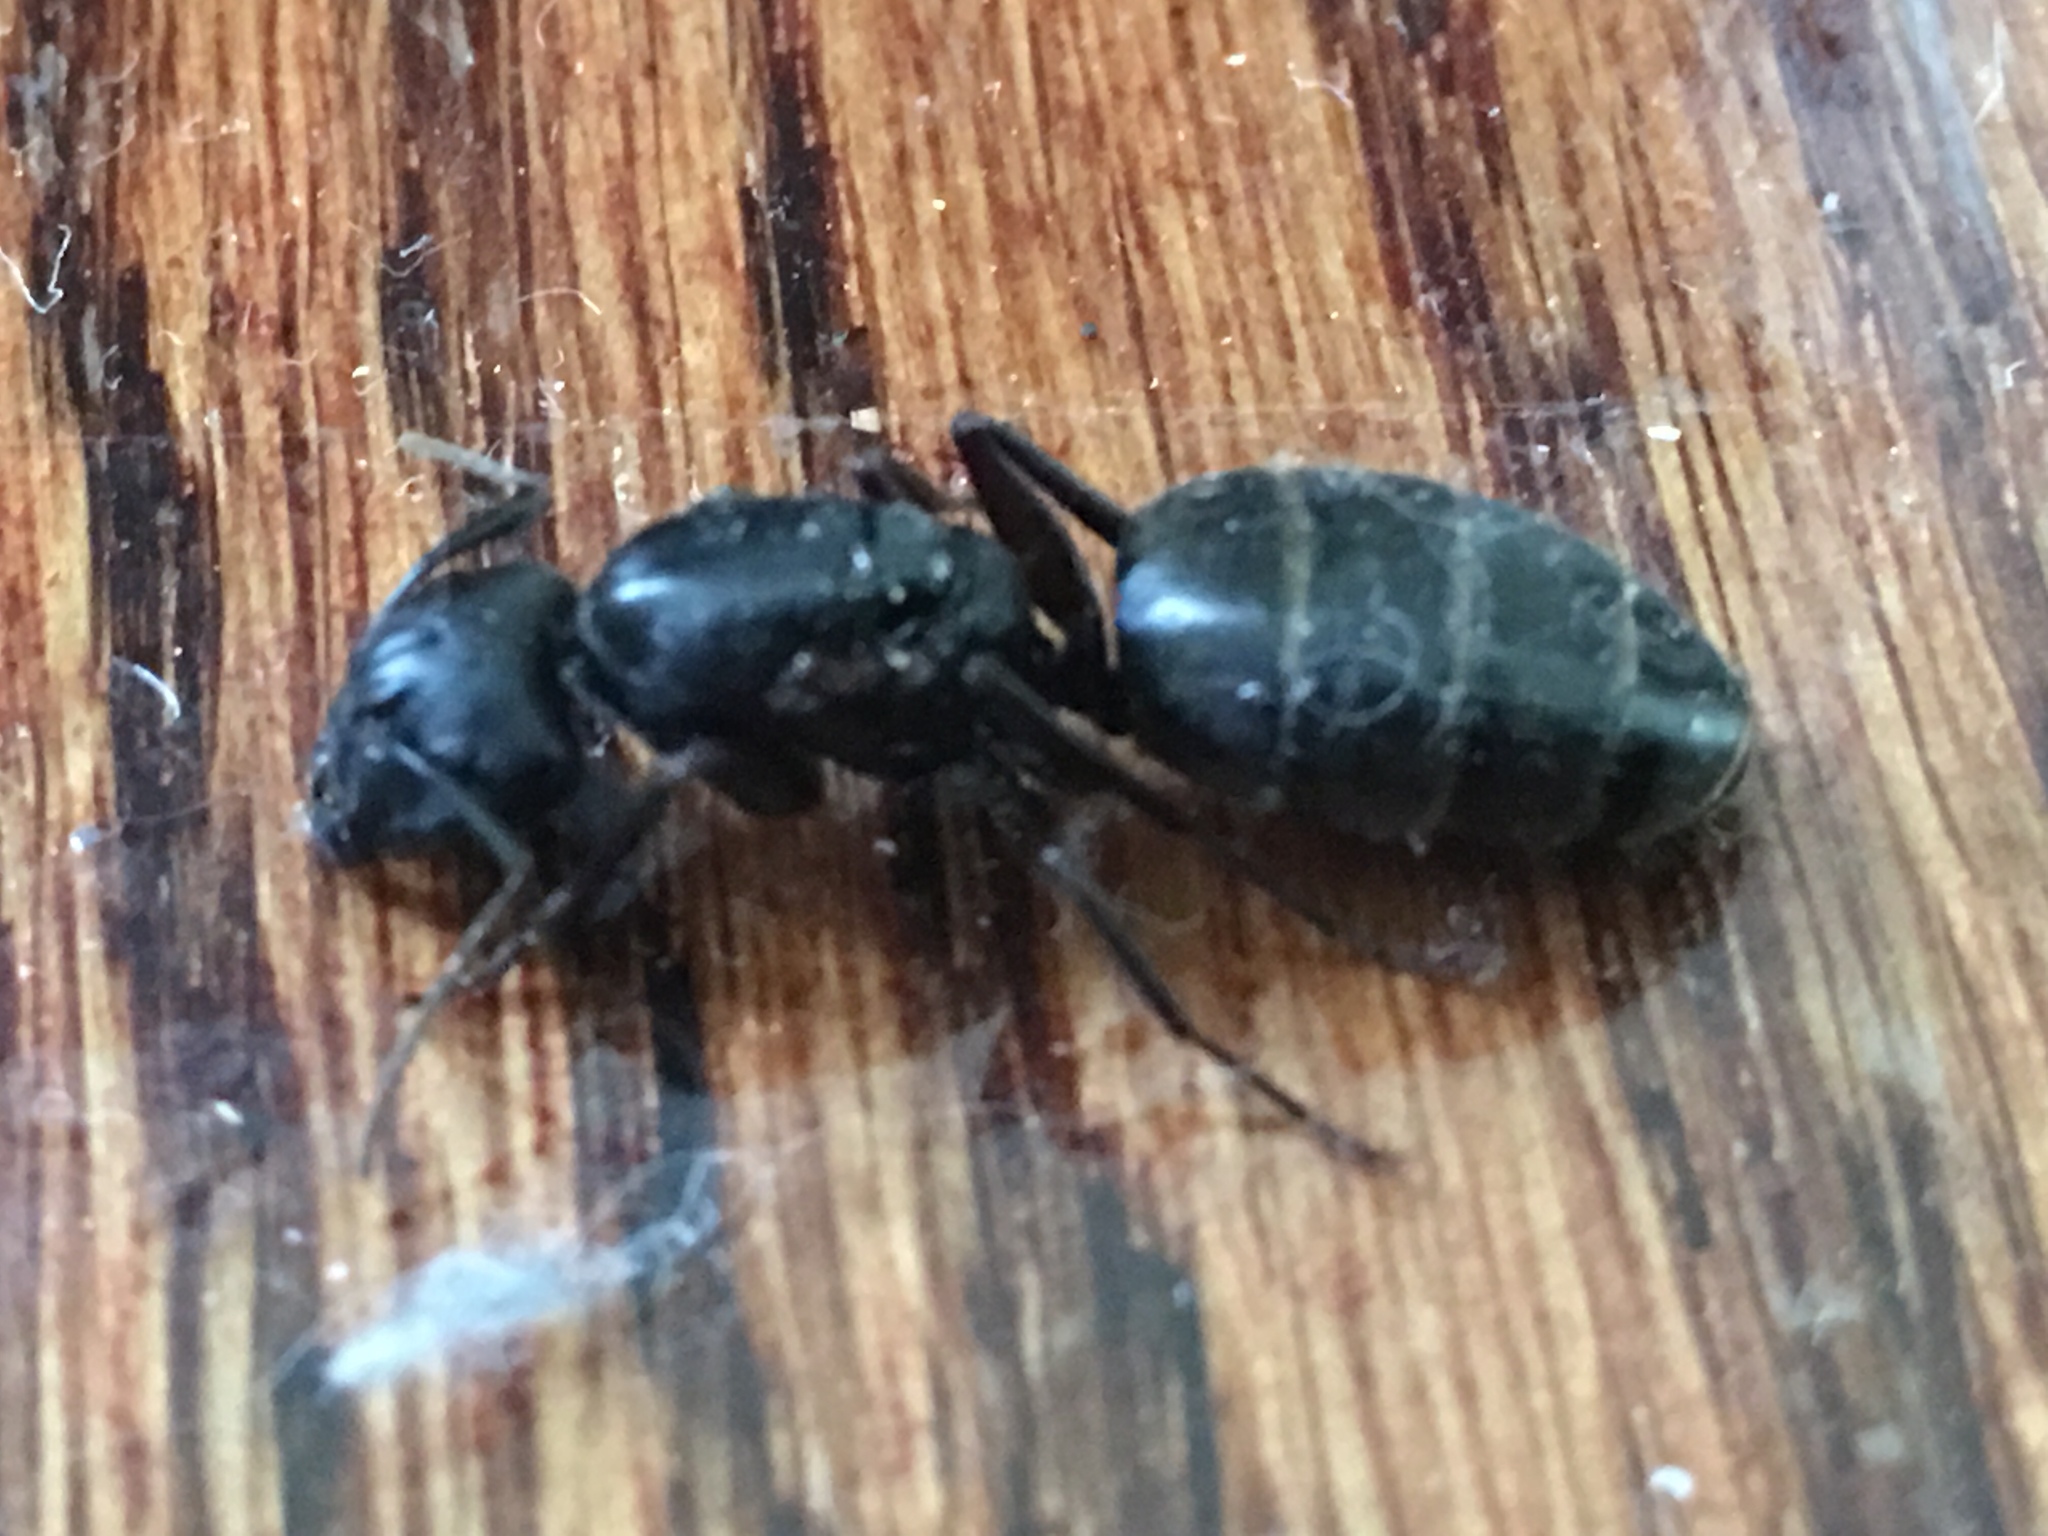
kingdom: Animalia
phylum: Arthropoda
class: Insecta
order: Hymenoptera
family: Formicidae
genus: Camponotus
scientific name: Camponotus pennsylvanicus
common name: Black carpenter ant
